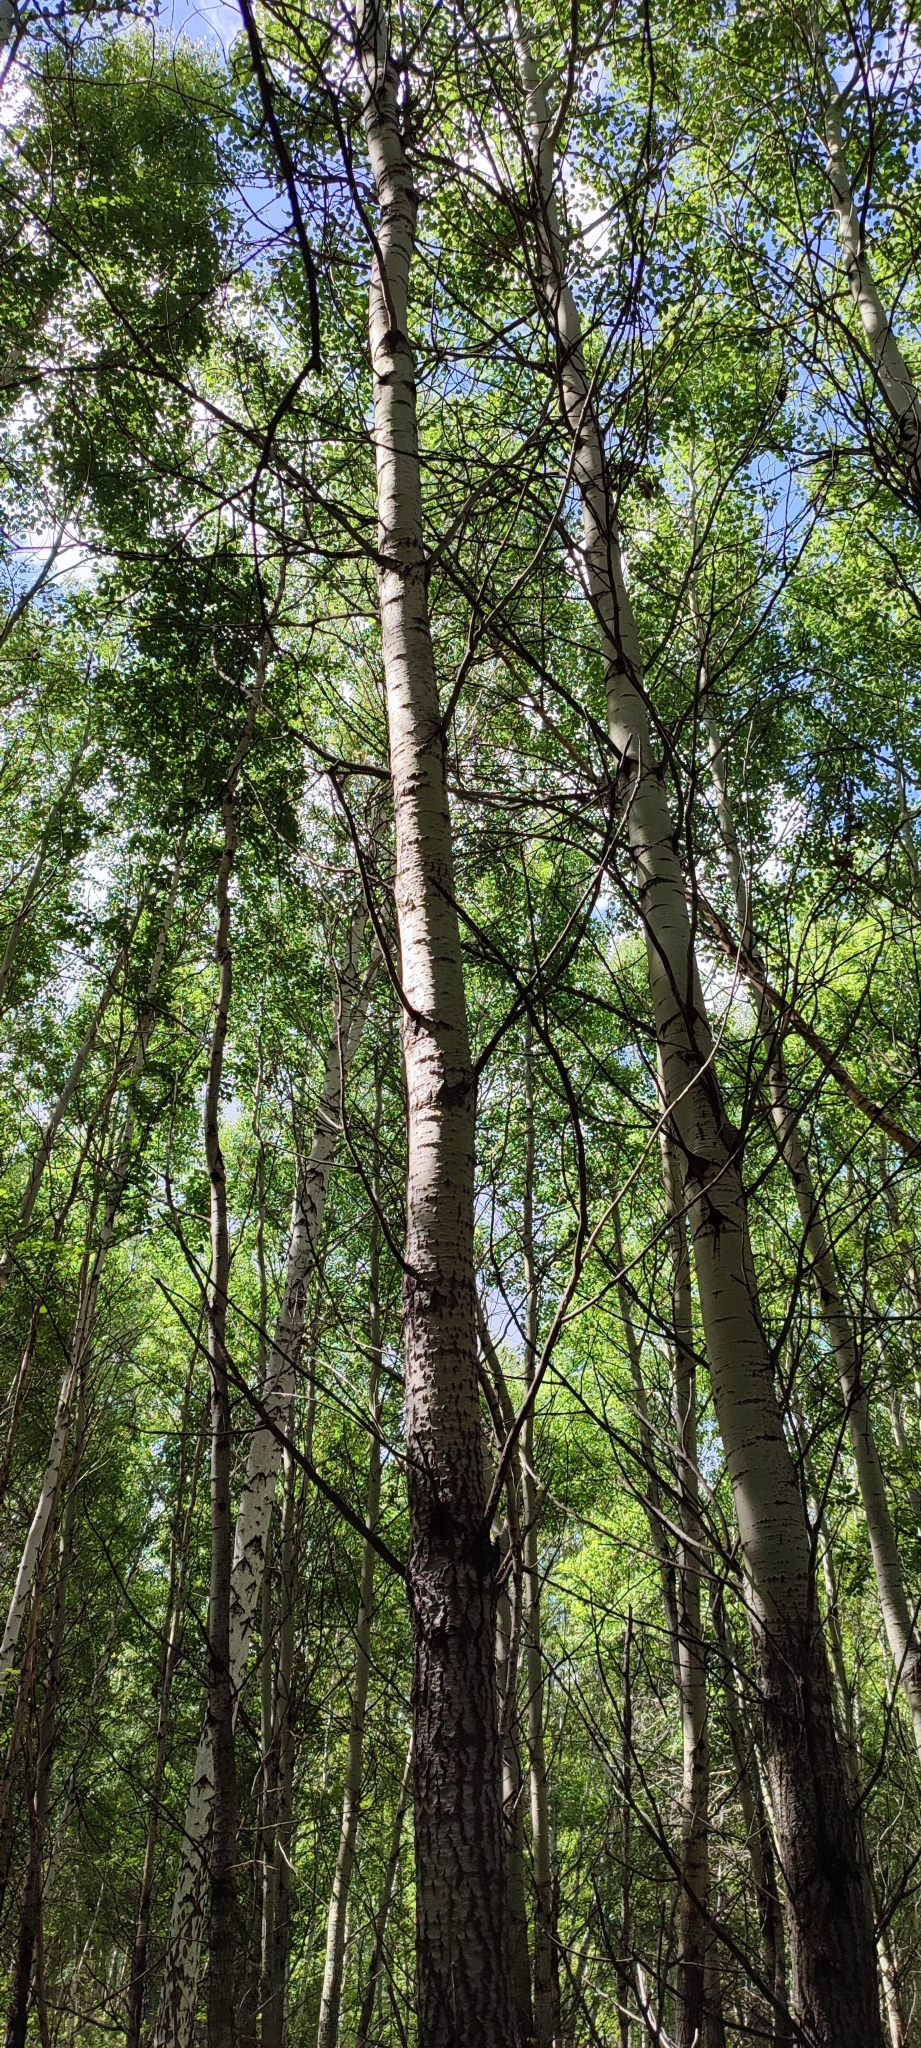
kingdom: Plantae
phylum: Tracheophyta
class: Magnoliopsida
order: Malpighiales
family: Salicaceae
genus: Populus
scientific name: Populus tremula
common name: European aspen
